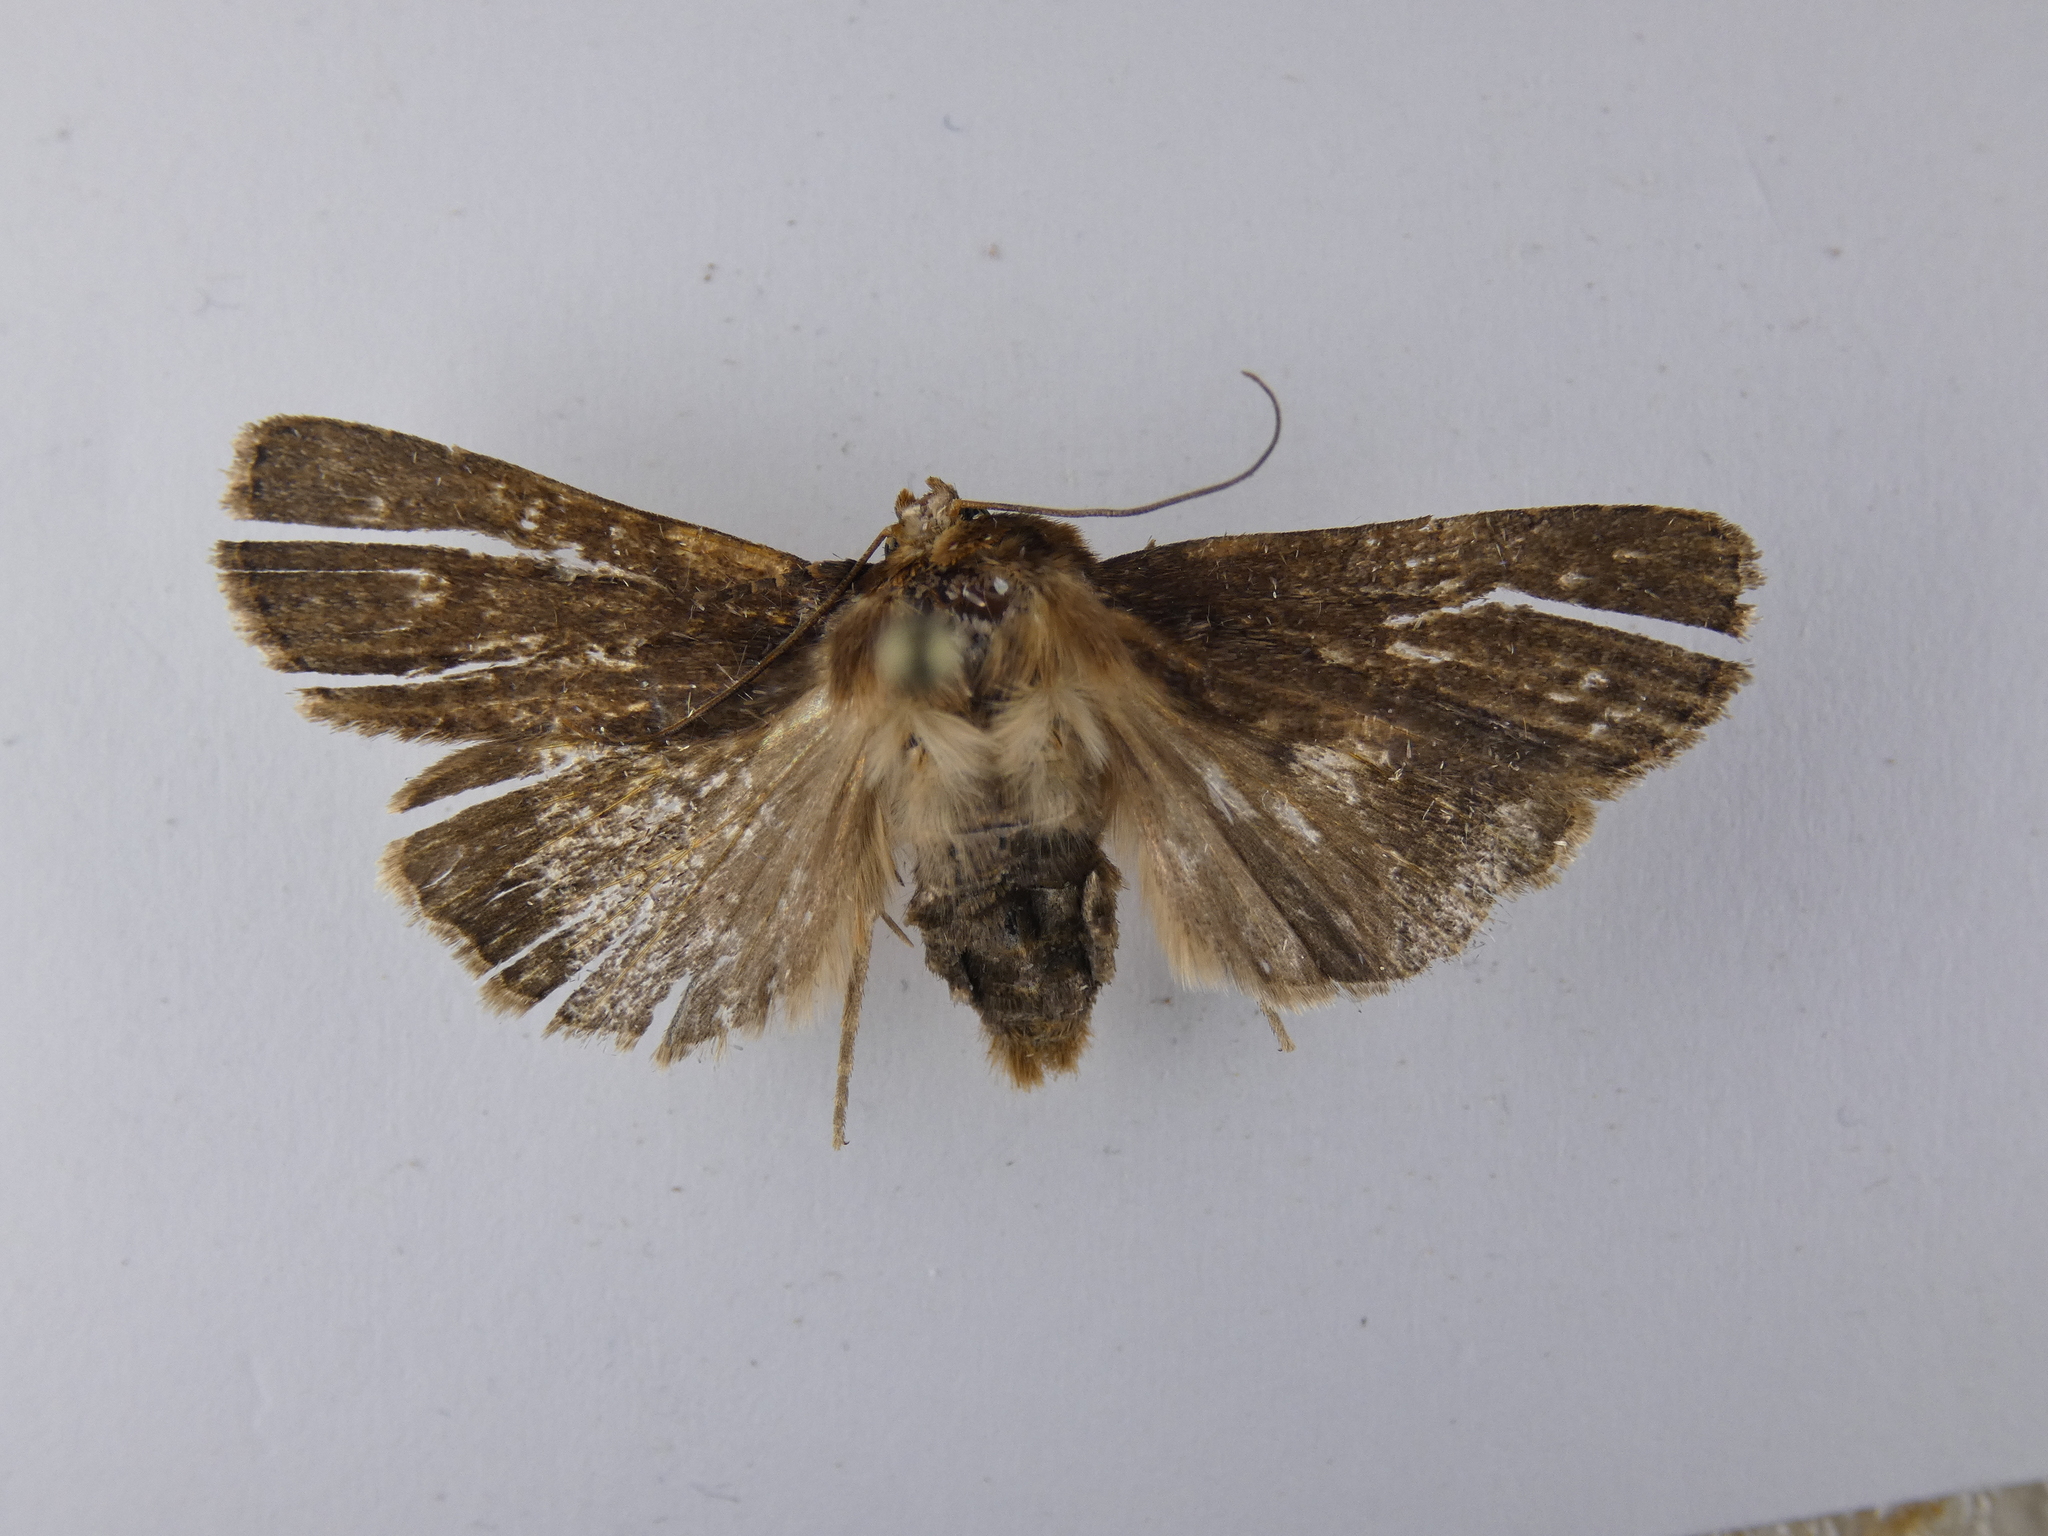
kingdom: Animalia
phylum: Arthropoda
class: Insecta
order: Lepidoptera
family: Noctuidae
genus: Bityla
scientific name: Bityla defigurata
